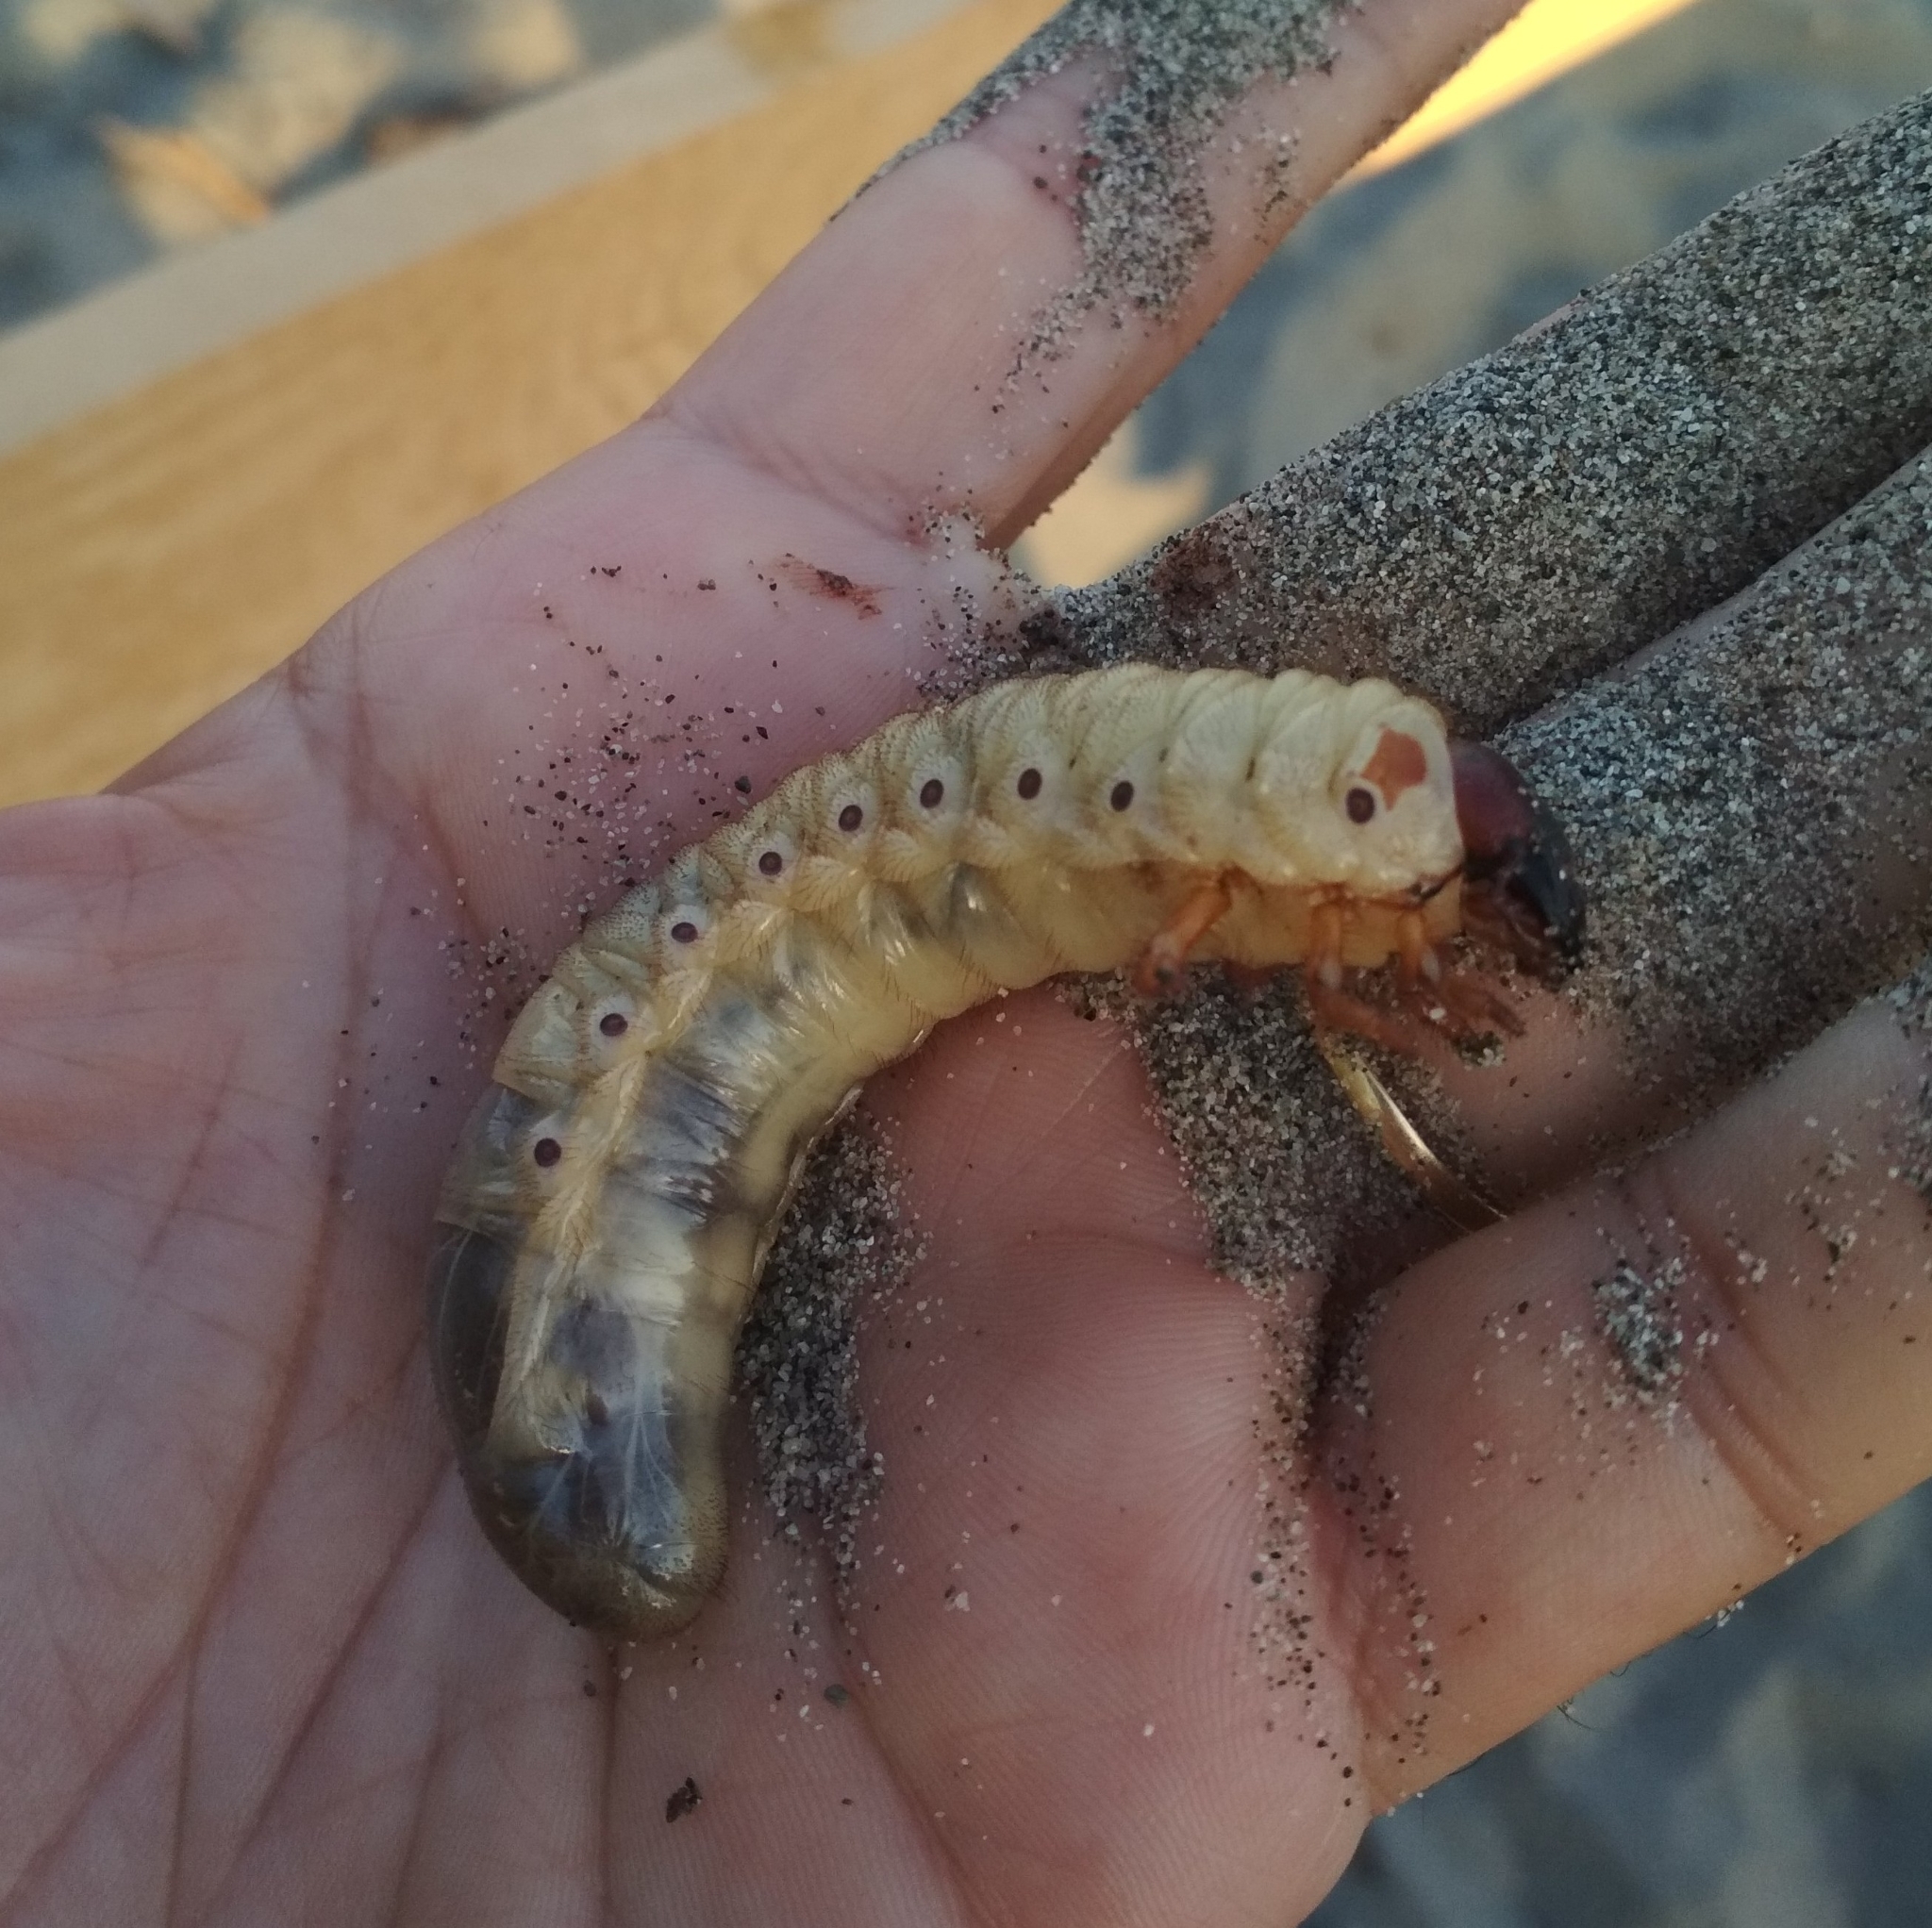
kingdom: Animalia
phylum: Arthropoda
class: Insecta
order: Coleoptera
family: Scarabaeidae
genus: Oryctes
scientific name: Oryctes nasicornis
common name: European rhinoceros beetle
